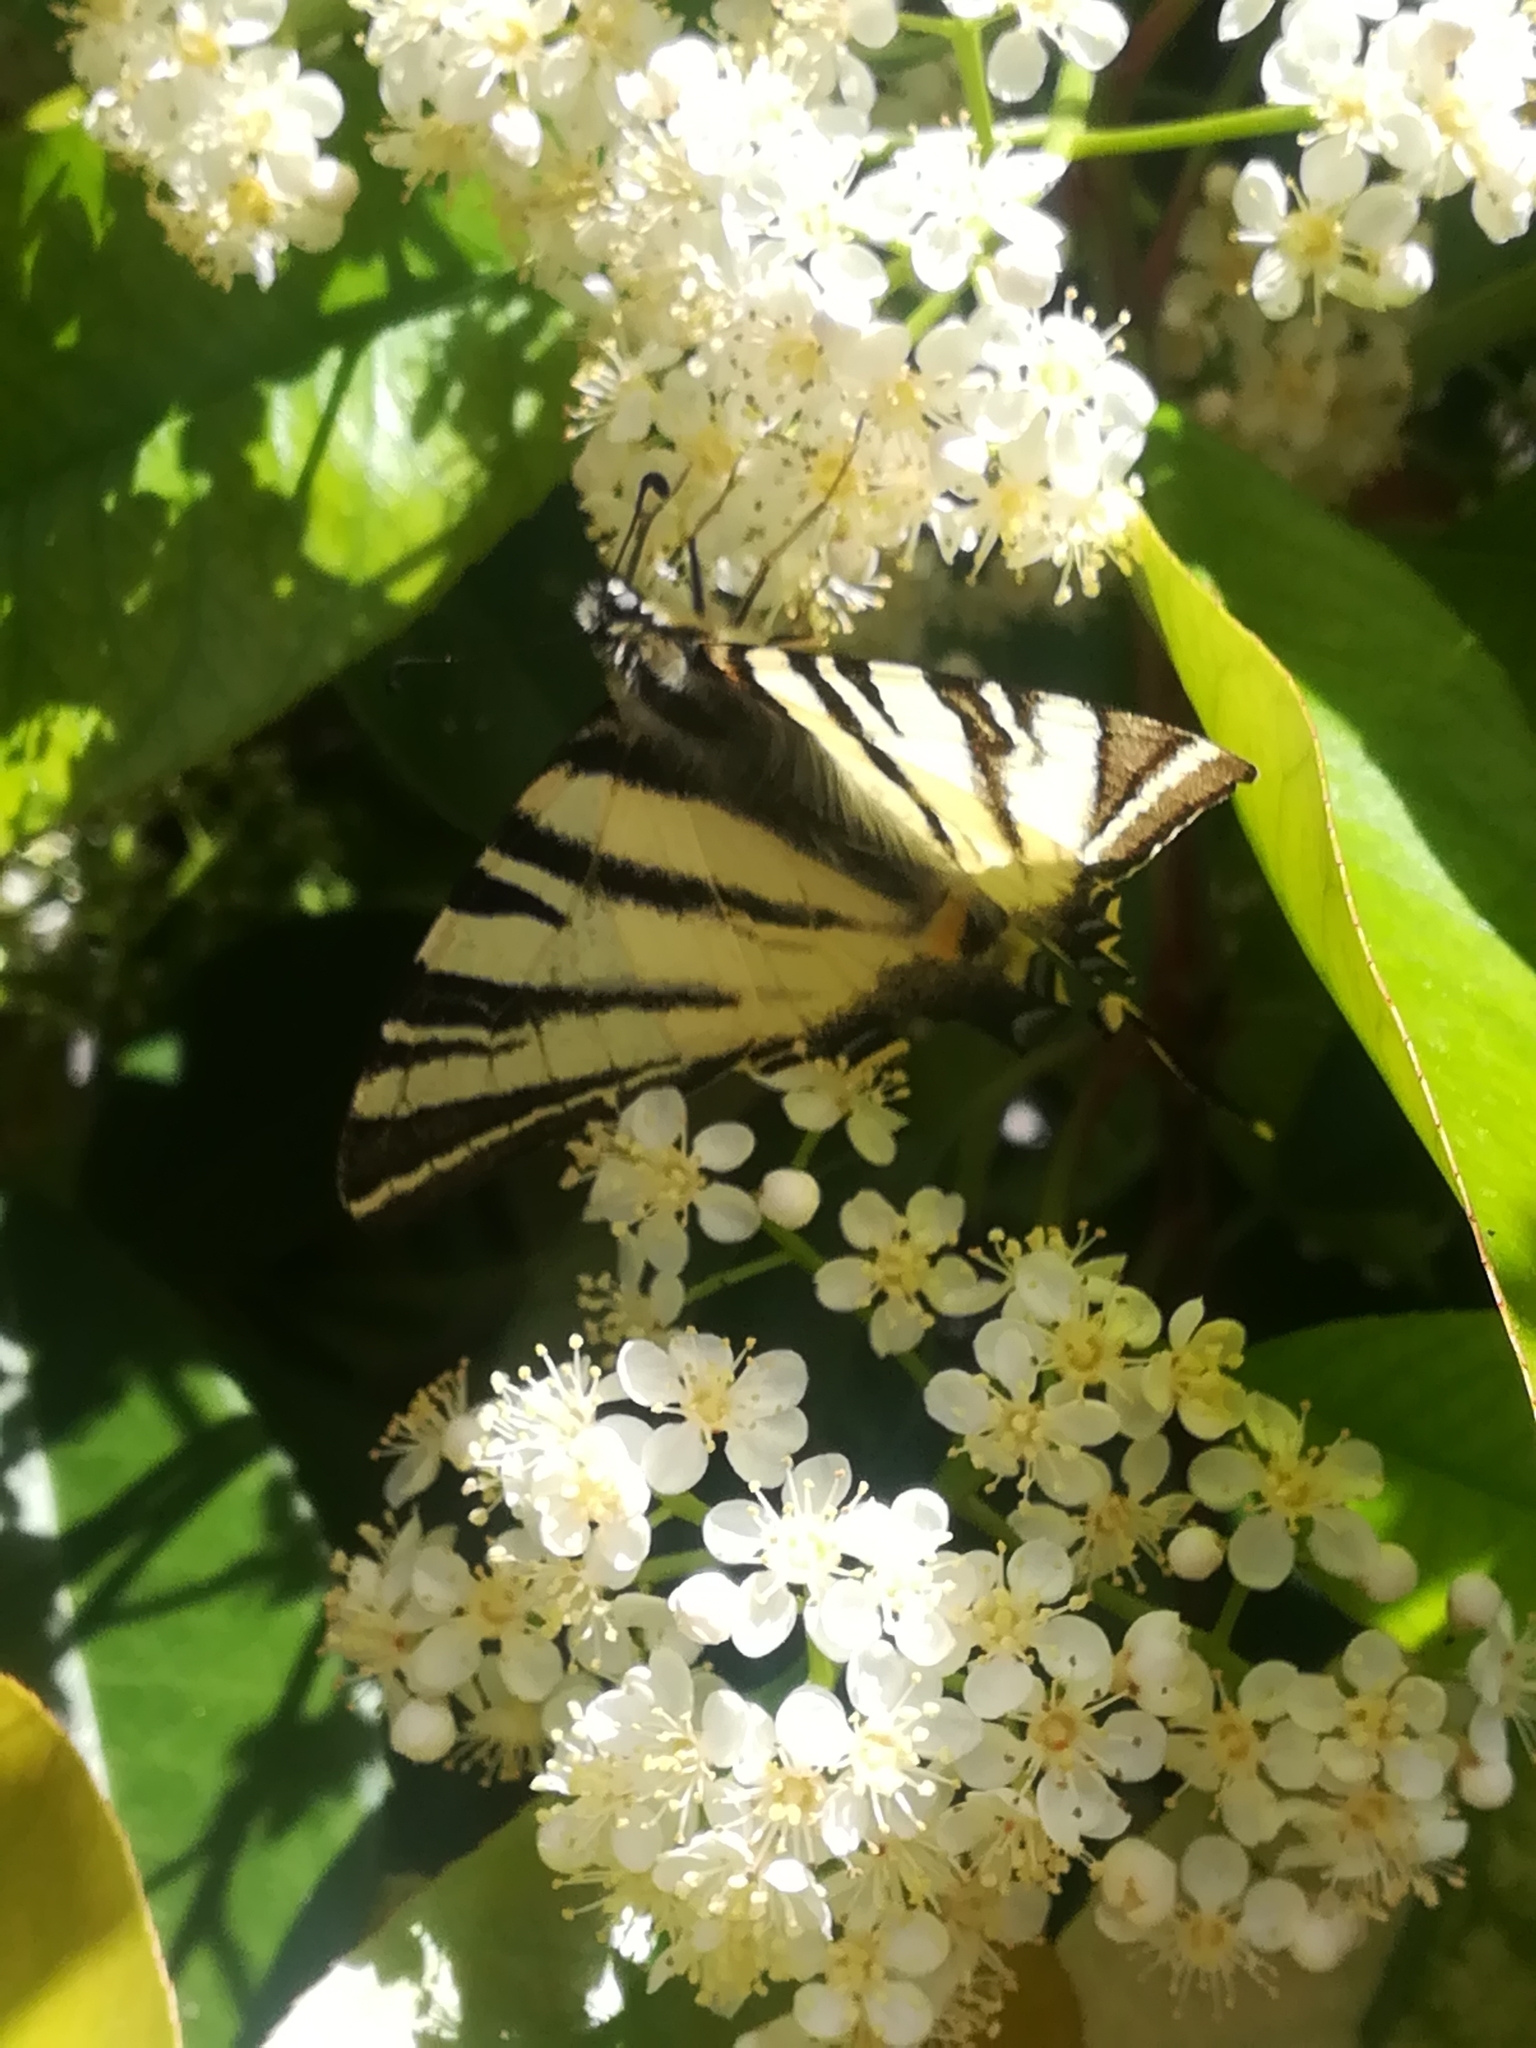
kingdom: Animalia
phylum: Arthropoda
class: Insecta
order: Lepidoptera
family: Papilionidae
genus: Iphiclides
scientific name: Iphiclides podalirius
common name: Scarce swallowtail
